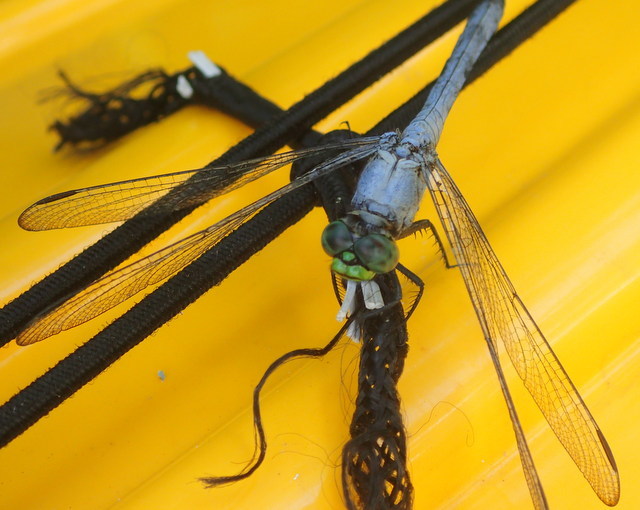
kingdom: Animalia
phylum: Arthropoda
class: Insecta
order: Odonata
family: Libellulidae
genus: Erythemis
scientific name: Erythemis simplicicollis
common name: Eastern pondhawk
